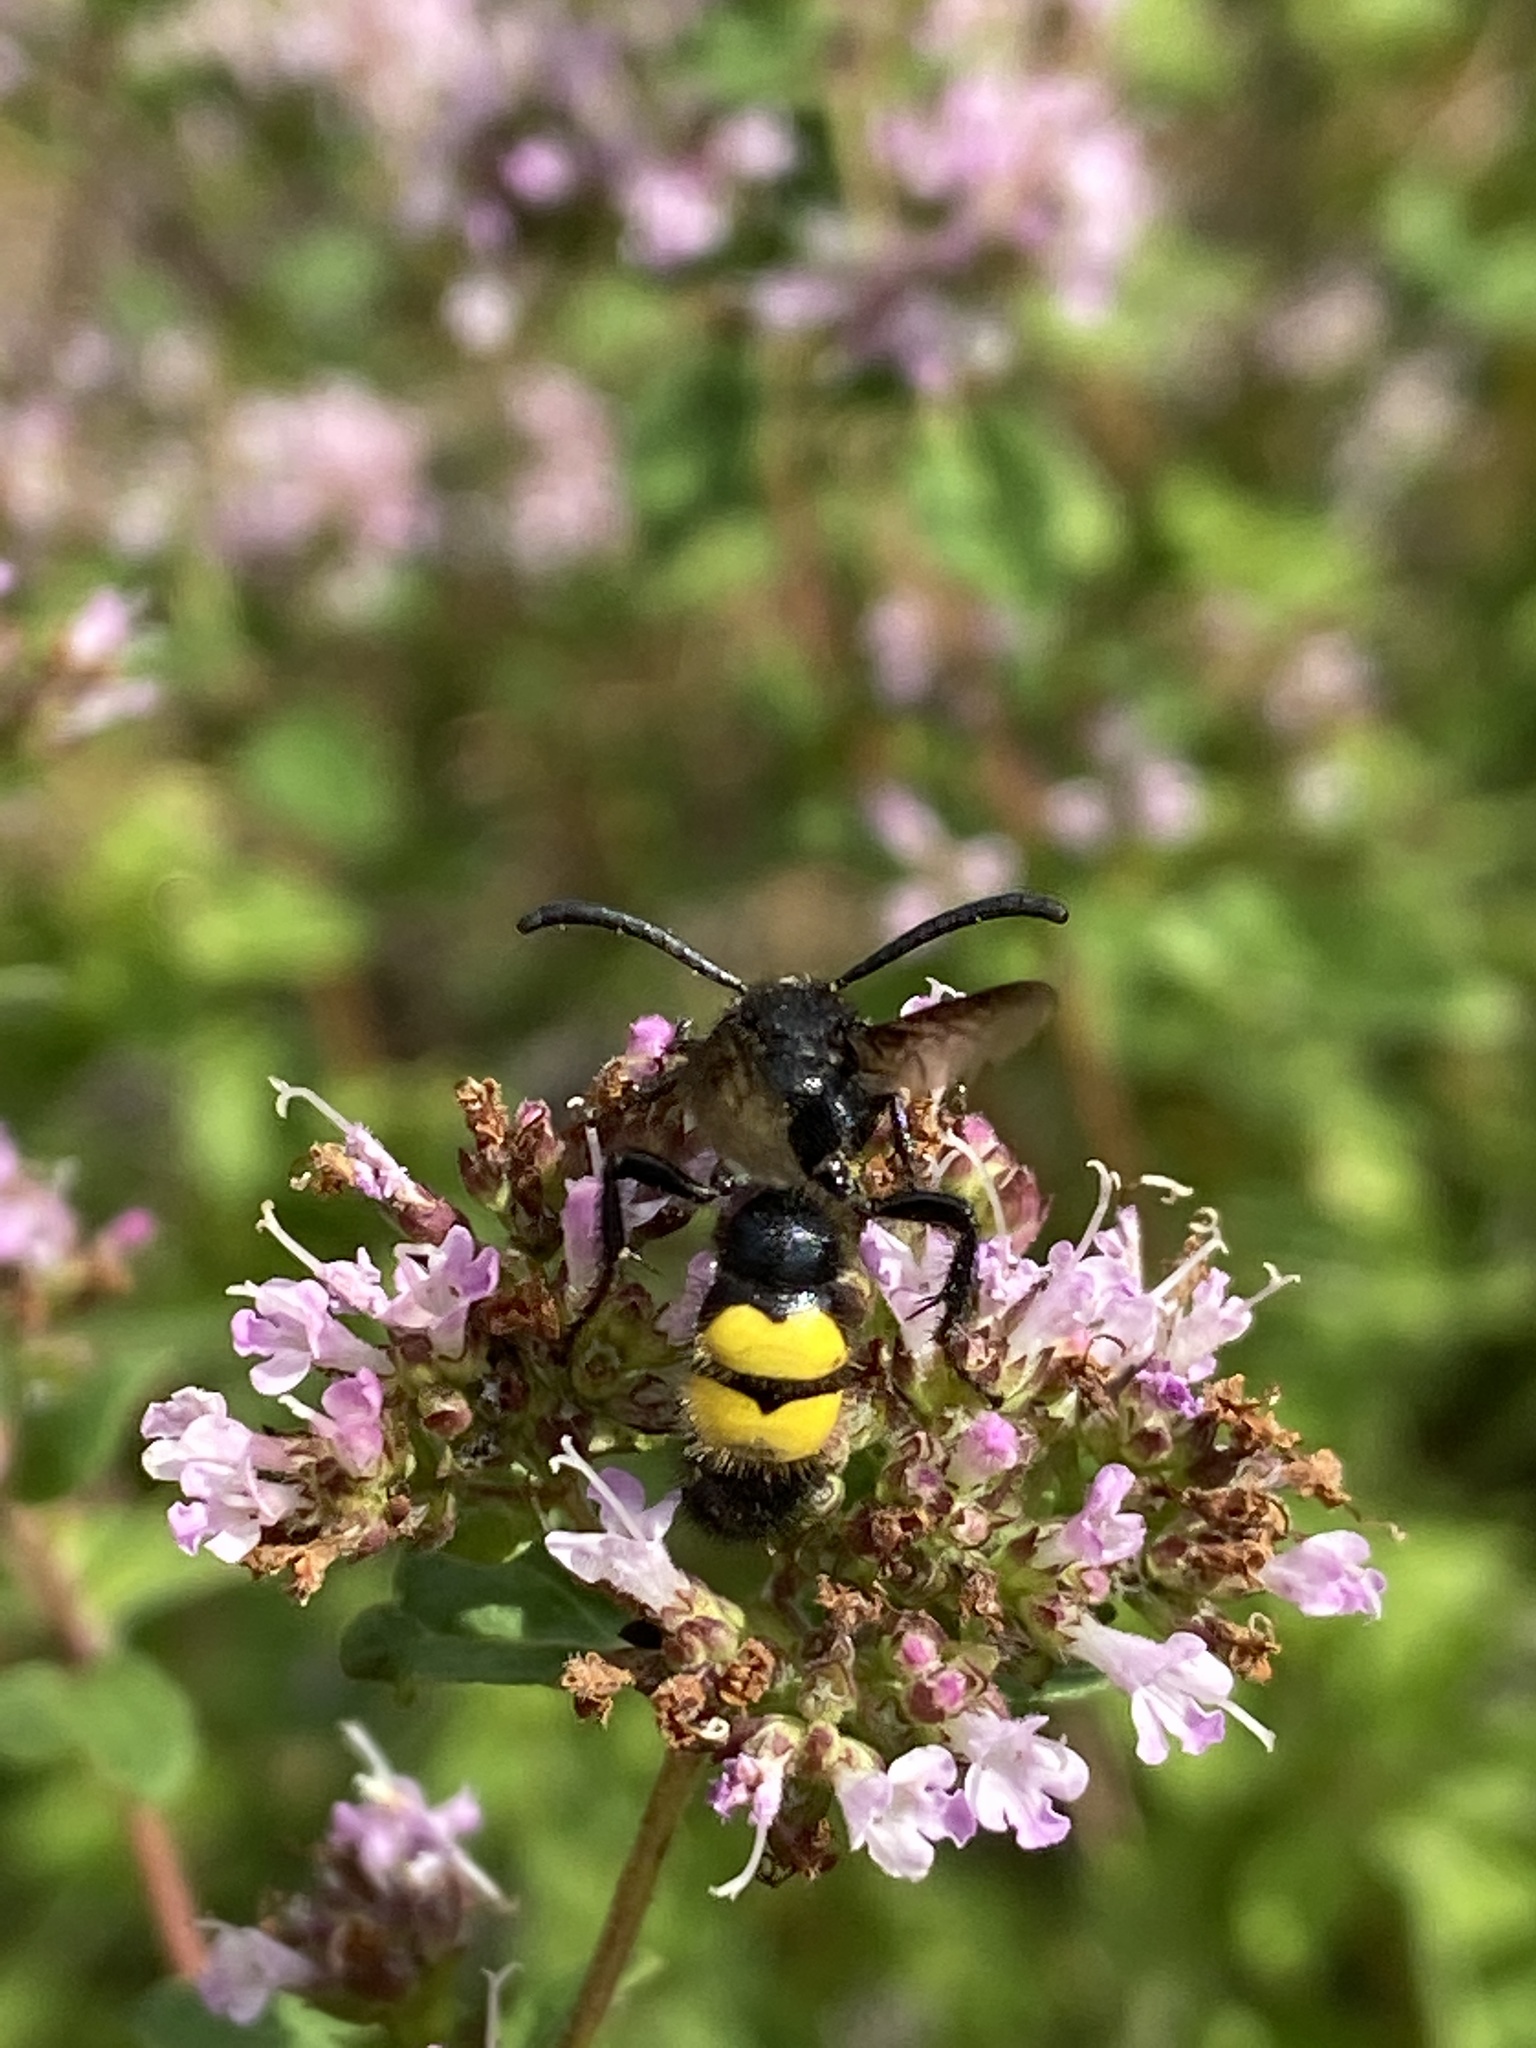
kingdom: Animalia
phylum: Arthropoda
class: Insecta
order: Hymenoptera
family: Scoliidae
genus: Scolia
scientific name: Scolia hirta
